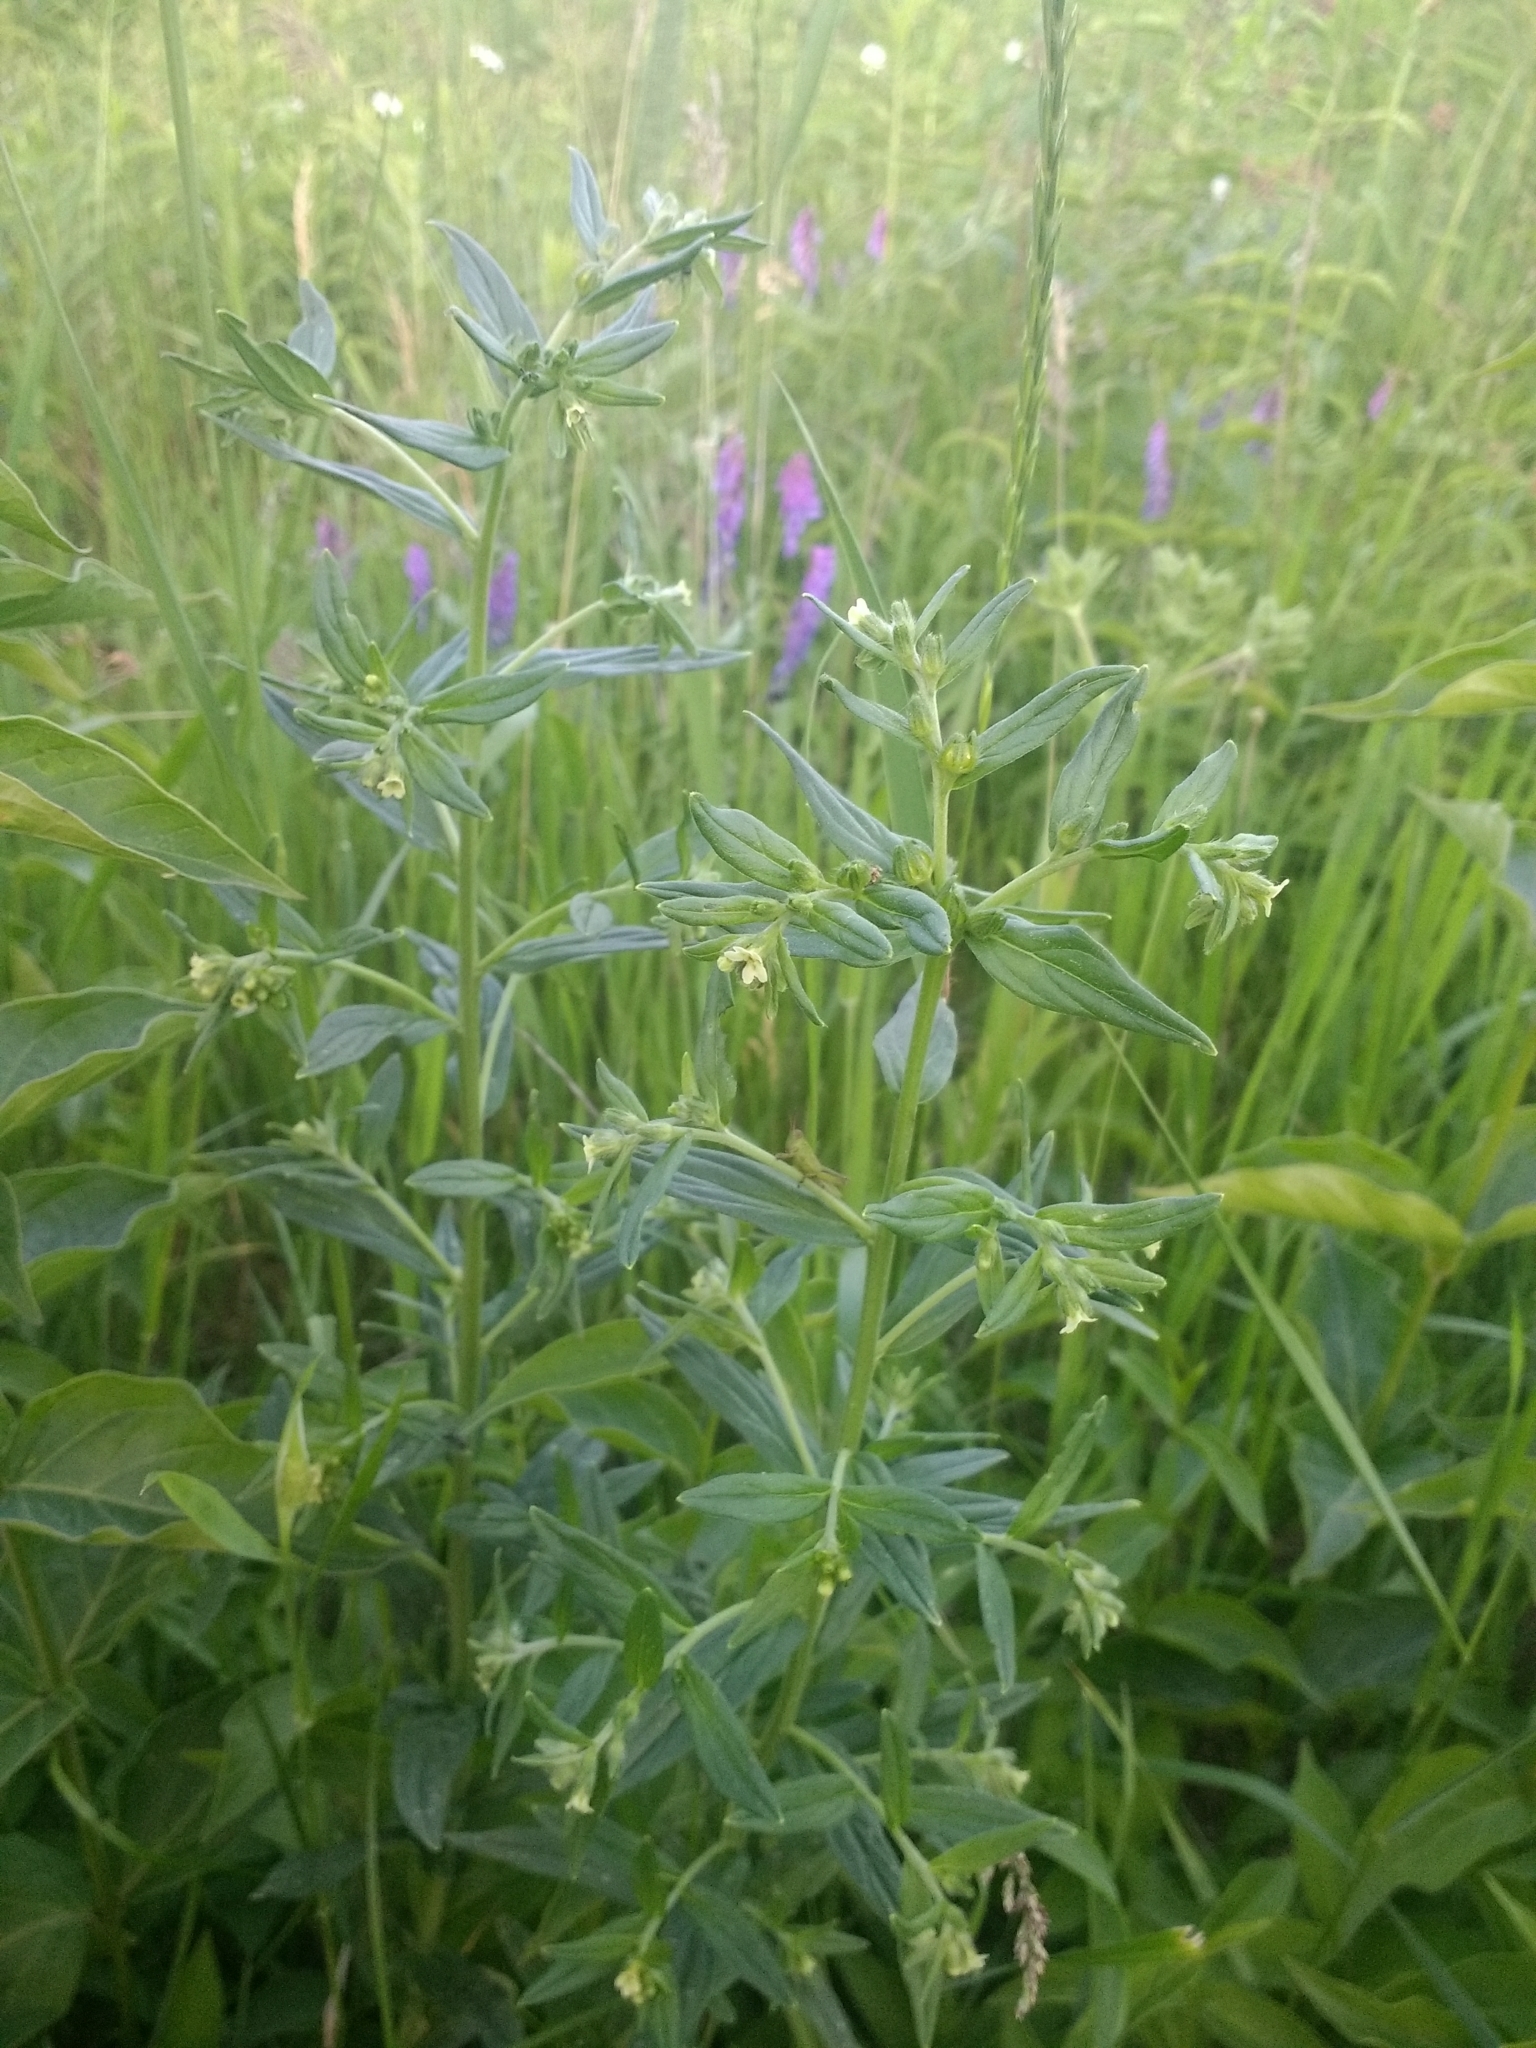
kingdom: Plantae
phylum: Tracheophyta
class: Magnoliopsida
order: Boraginales
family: Boraginaceae
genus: Lithospermum
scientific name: Lithospermum officinale
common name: Common gromwell
